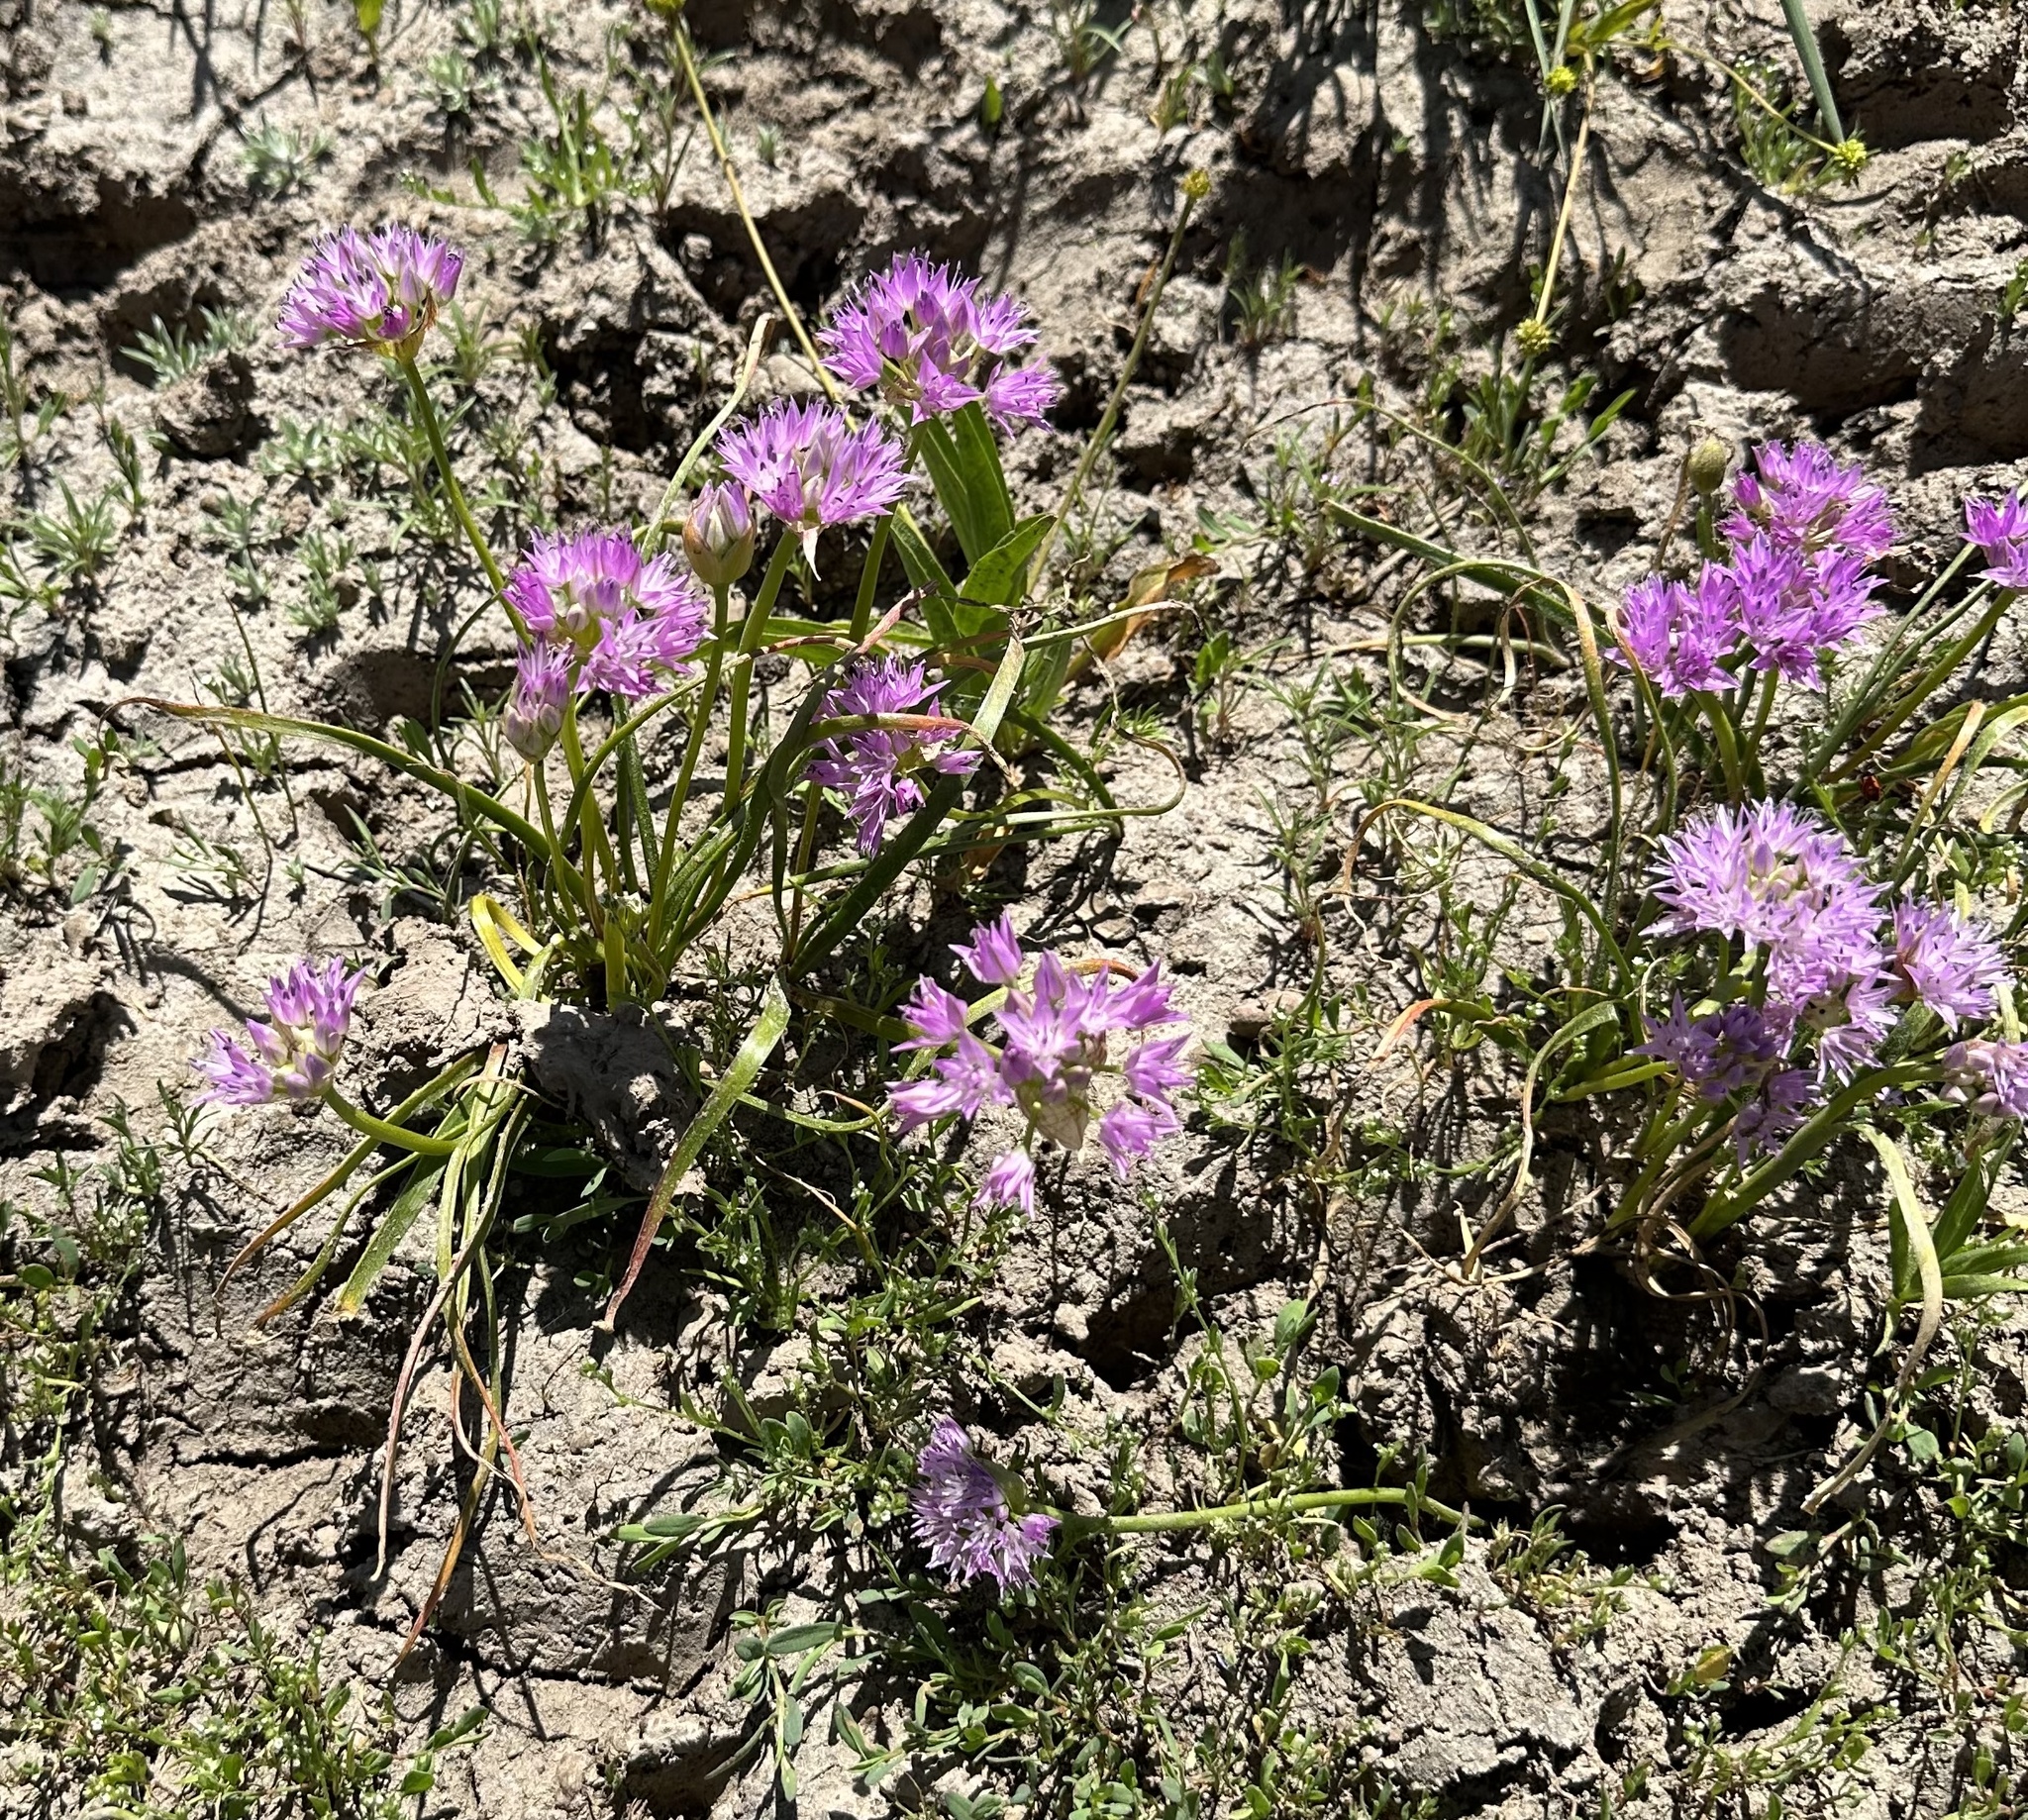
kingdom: Plantae
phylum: Tracheophyta
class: Liliopsida
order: Asparagales
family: Amaryllidaceae
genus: Allium
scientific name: Allium lemmonii
